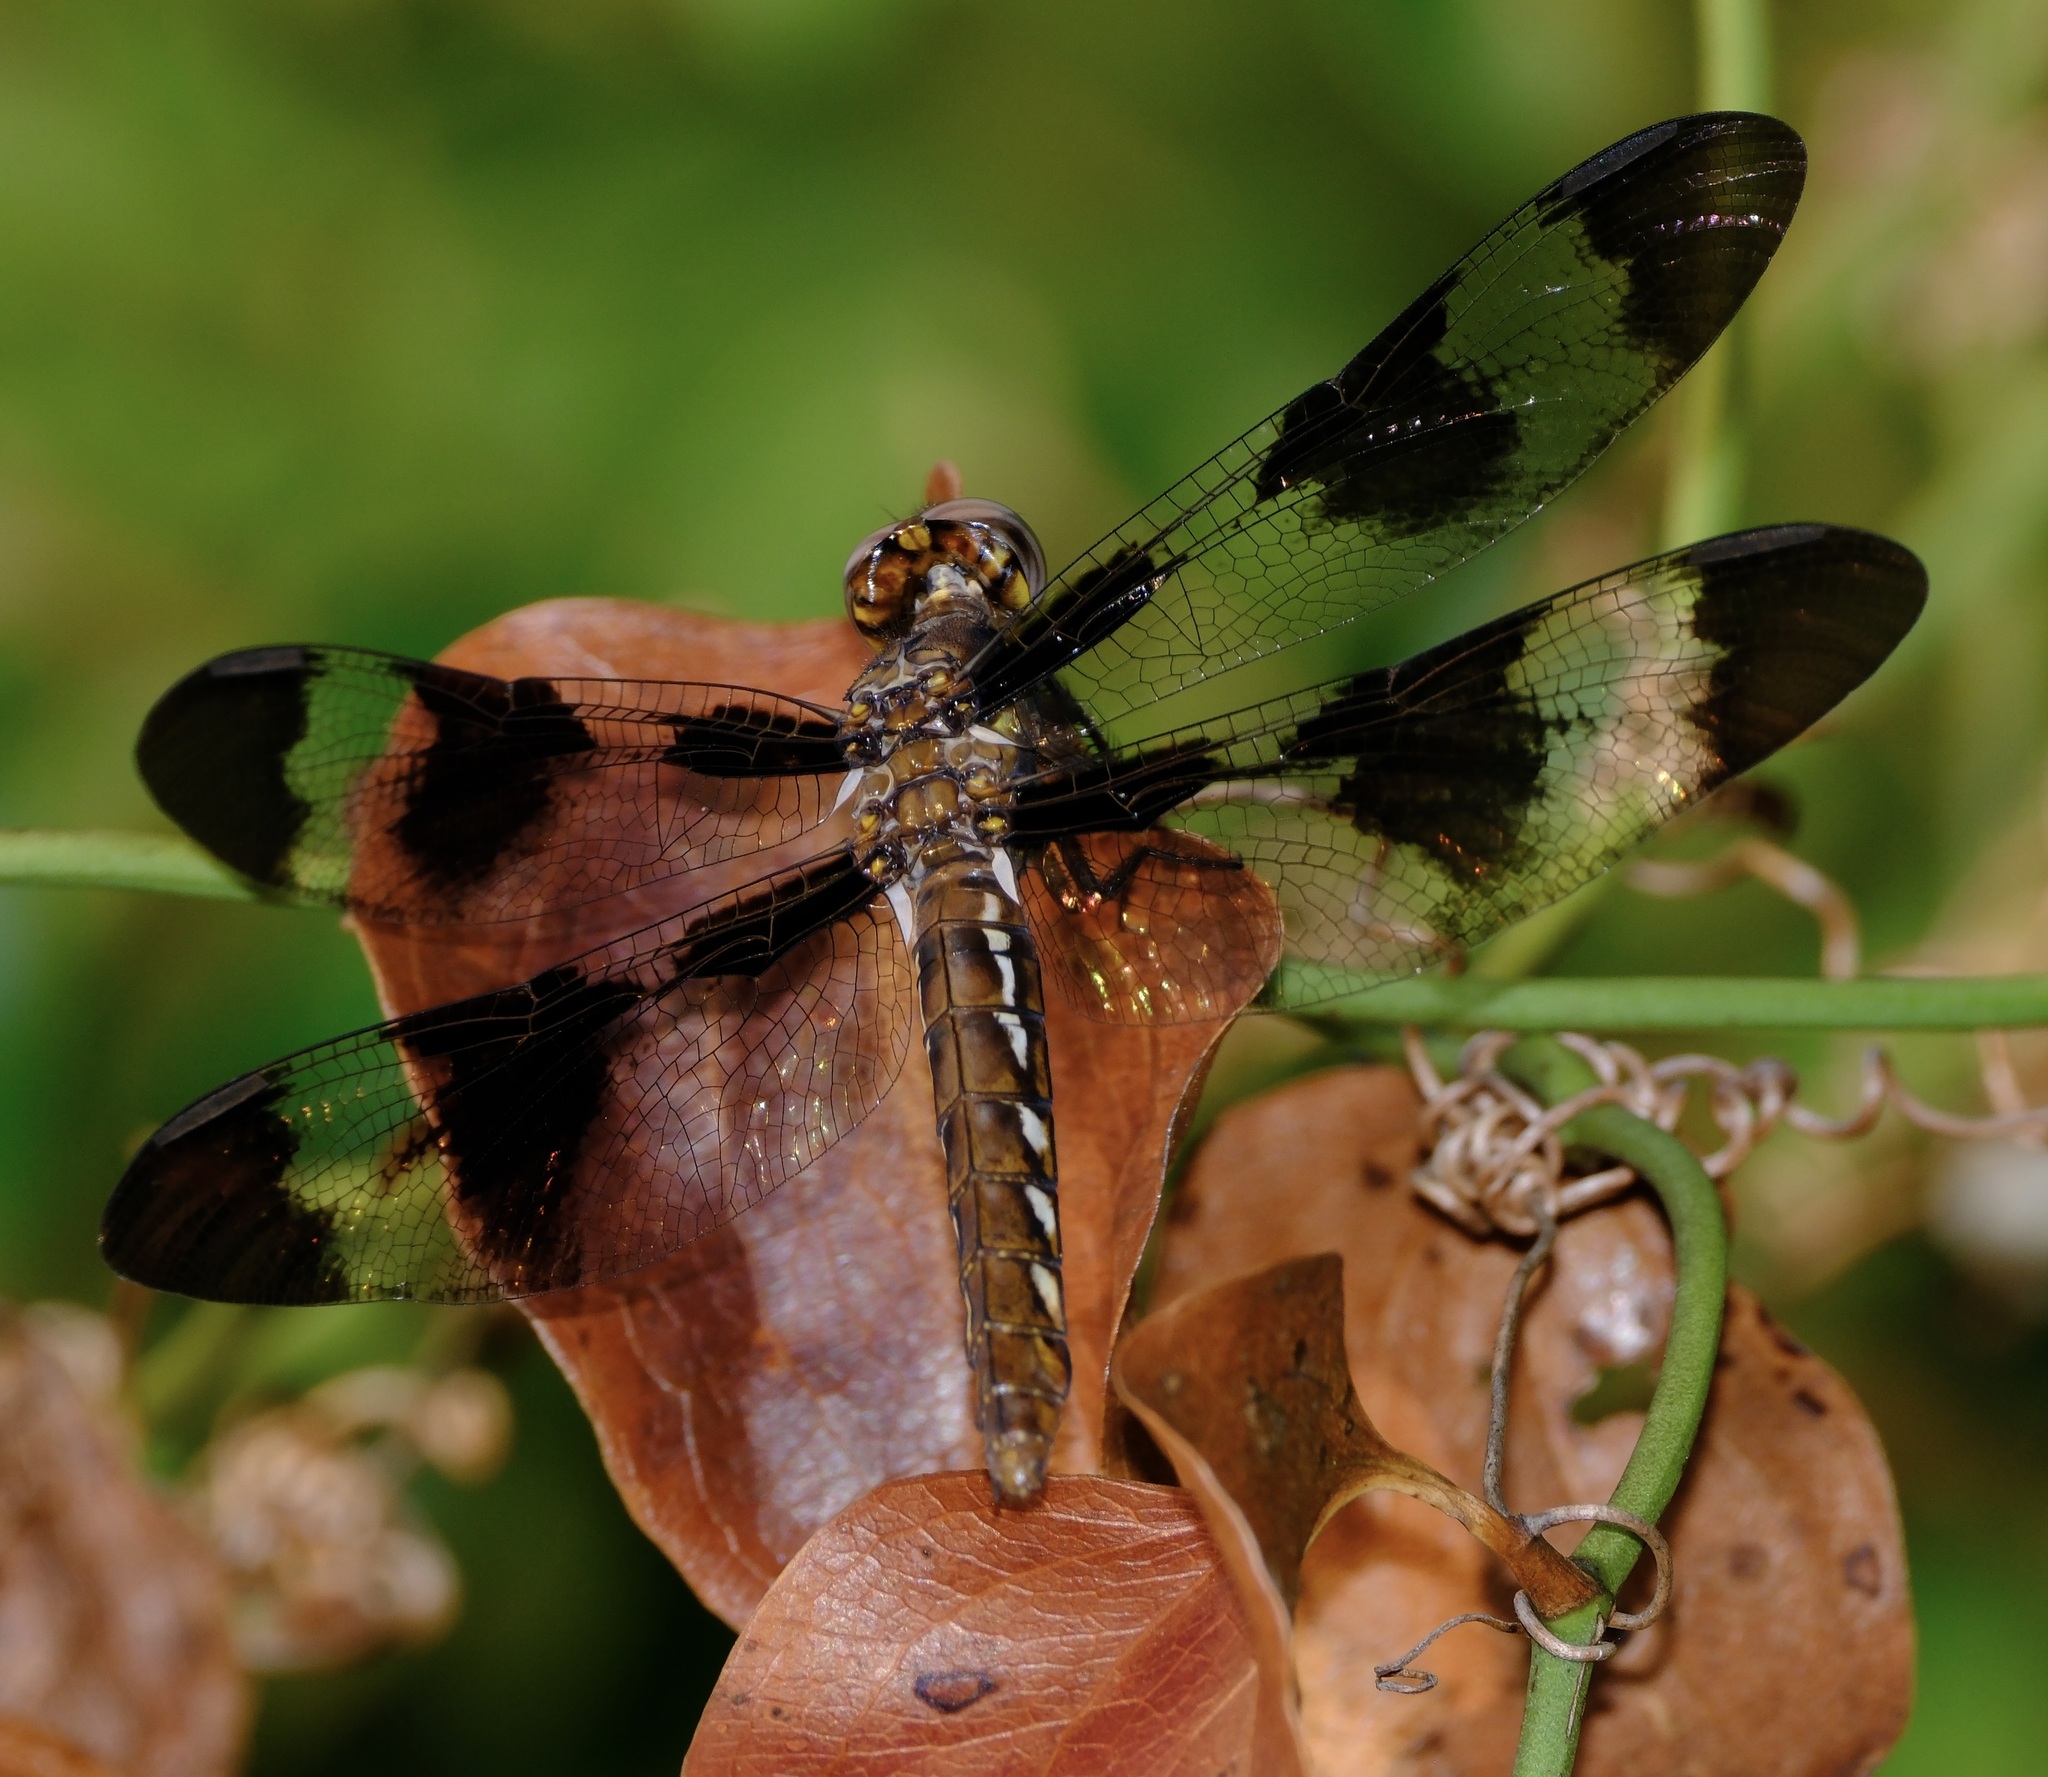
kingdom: Animalia
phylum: Arthropoda
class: Insecta
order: Odonata
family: Libellulidae
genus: Plathemis
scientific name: Plathemis lydia
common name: Common whitetail
